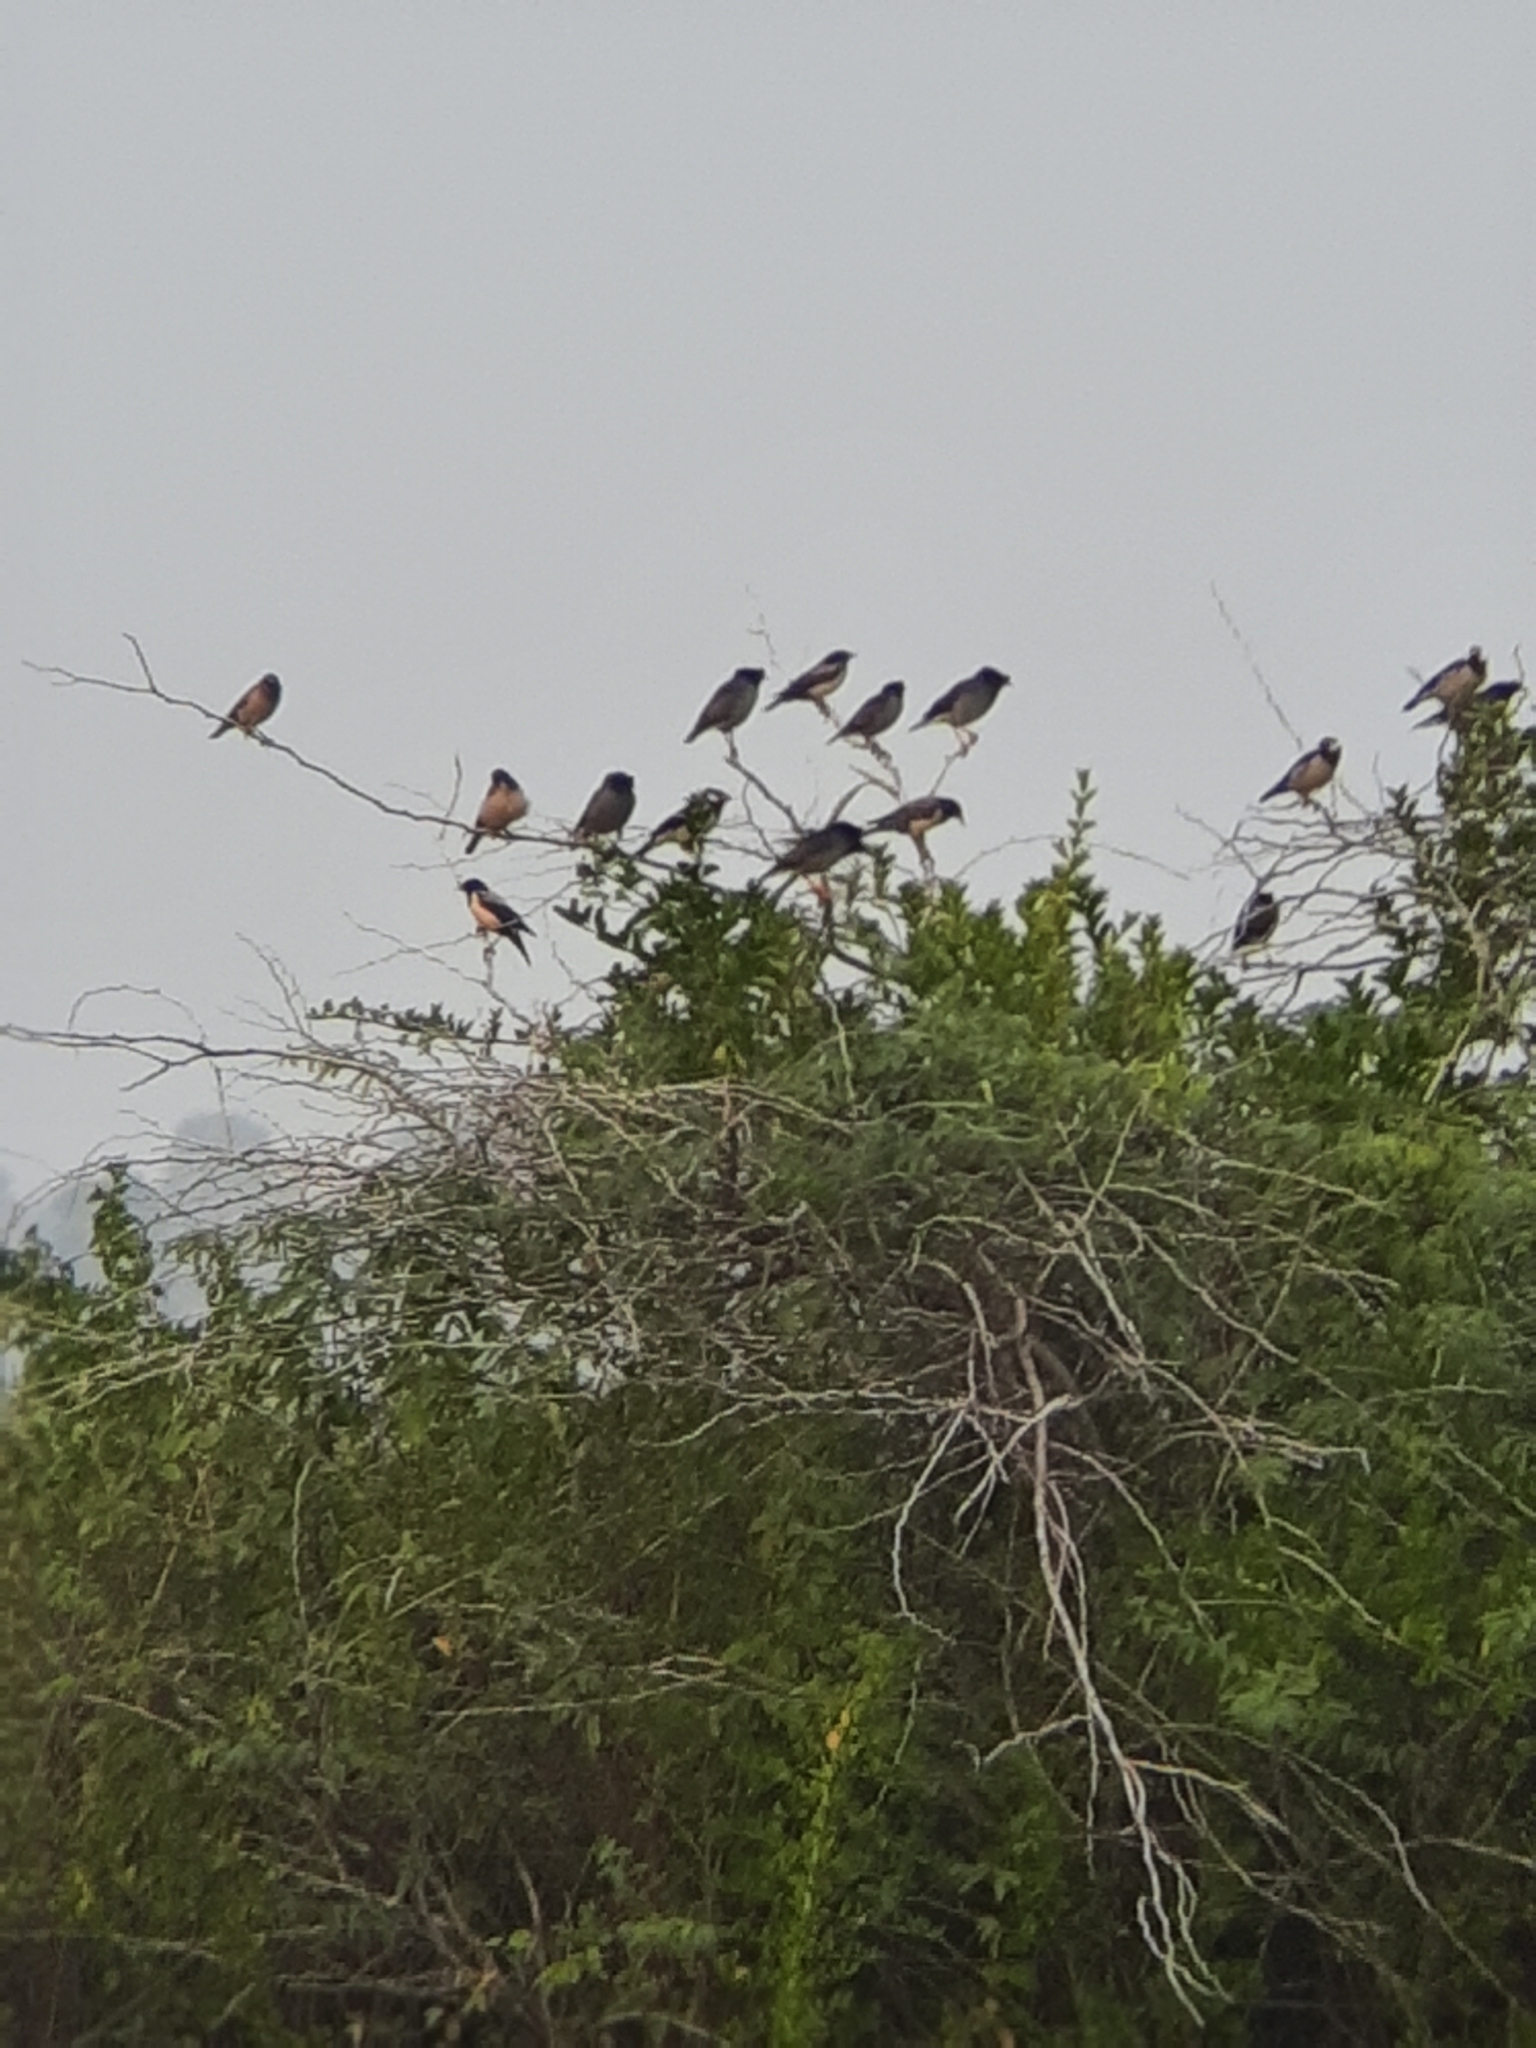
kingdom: Animalia
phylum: Chordata
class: Aves
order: Passeriformes
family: Sturnidae
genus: Pastor
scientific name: Pastor roseus
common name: Rosy starling
